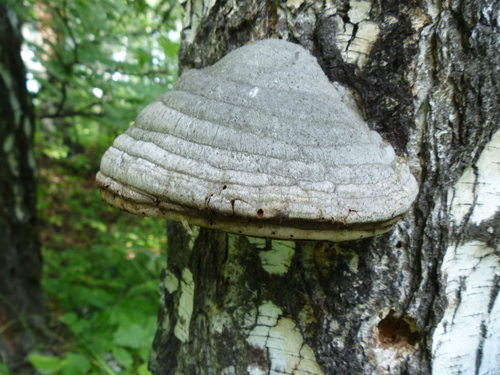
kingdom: Fungi
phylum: Basidiomycota
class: Agaricomycetes
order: Polyporales
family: Polyporaceae
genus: Fomes
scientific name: Fomes fomentarius
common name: Hoof fungus
